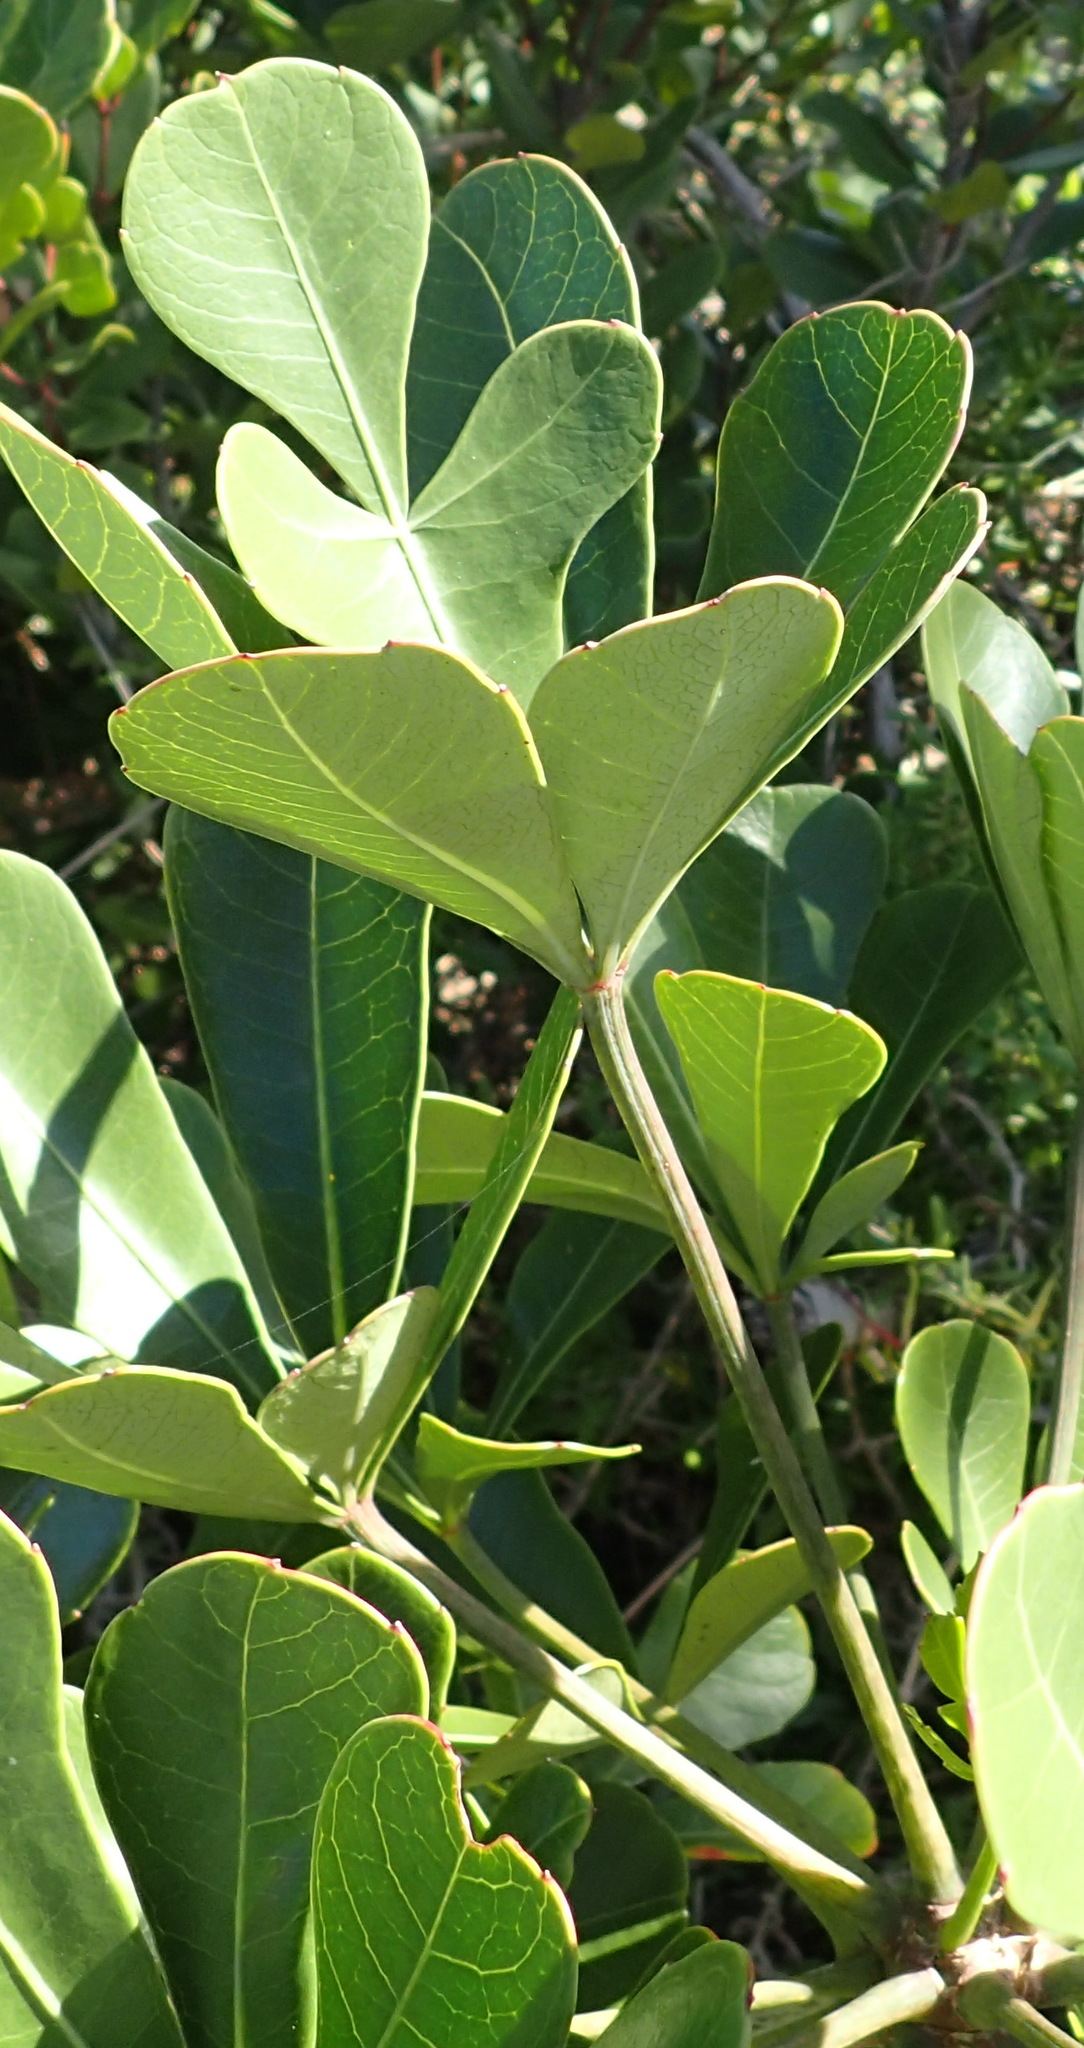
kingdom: Plantae
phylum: Tracheophyta
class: Magnoliopsida
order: Apiales
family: Araliaceae
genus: Cussonia
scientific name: Cussonia thyrsiflora
